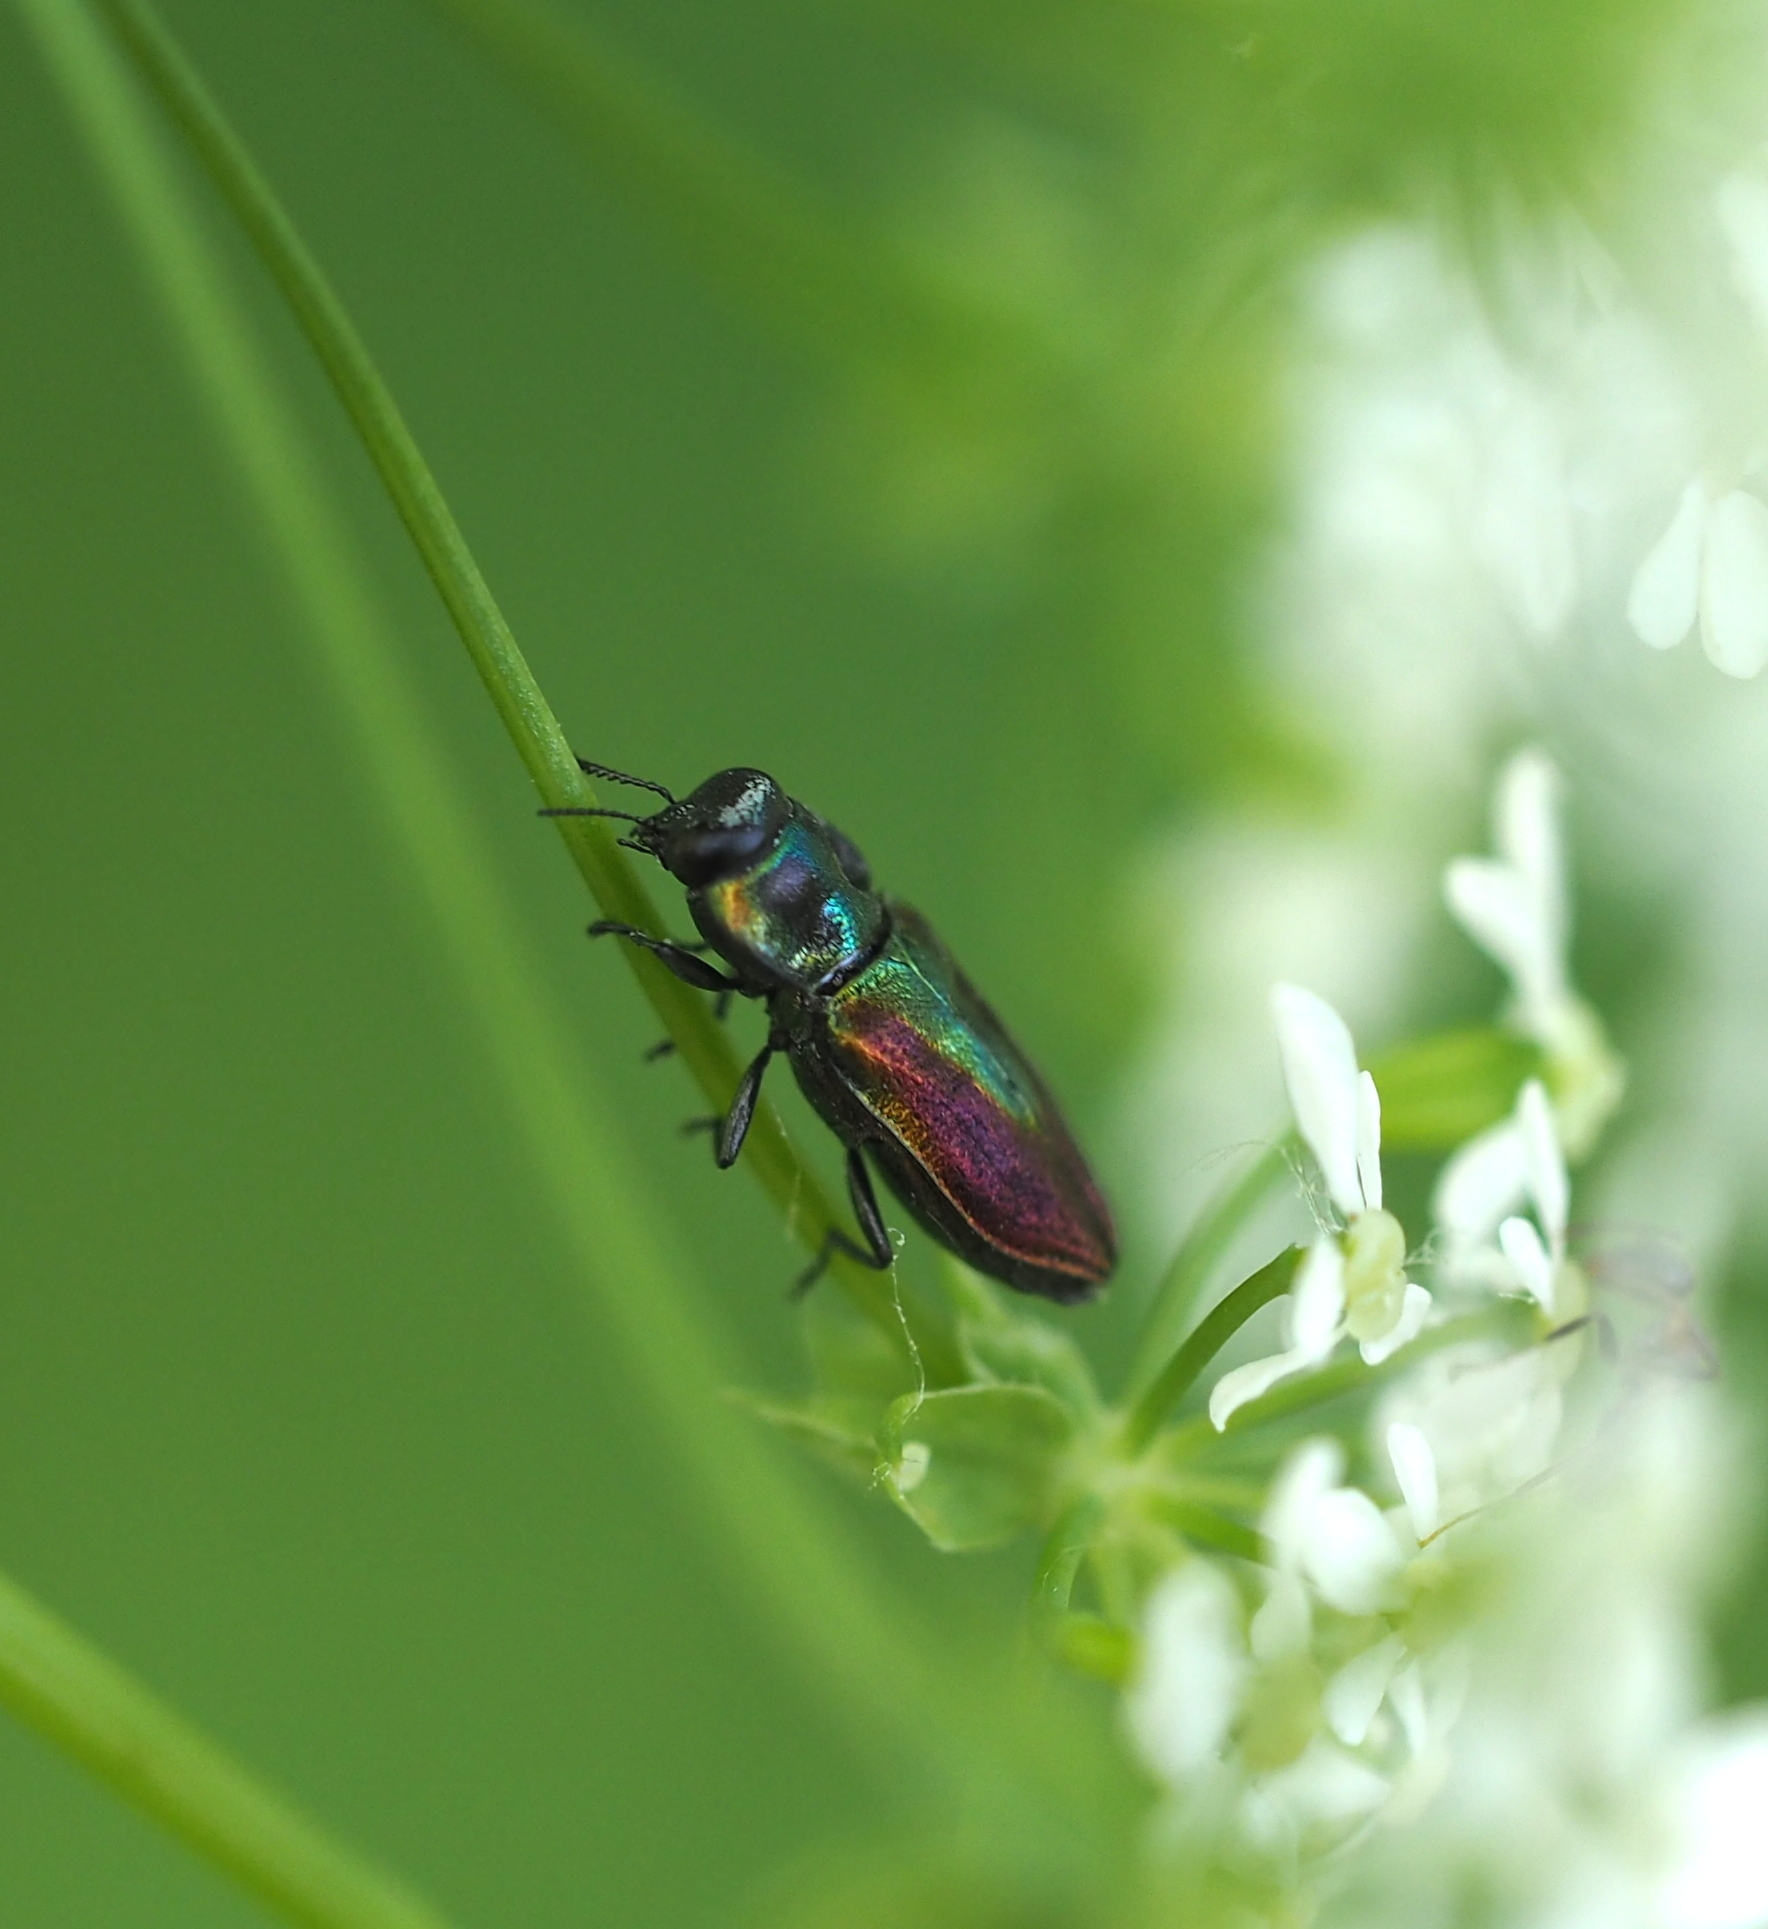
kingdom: Animalia
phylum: Arthropoda
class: Insecta
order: Coleoptera
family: Buprestidae
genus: Anthaxia
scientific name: Anthaxia fulgurans
